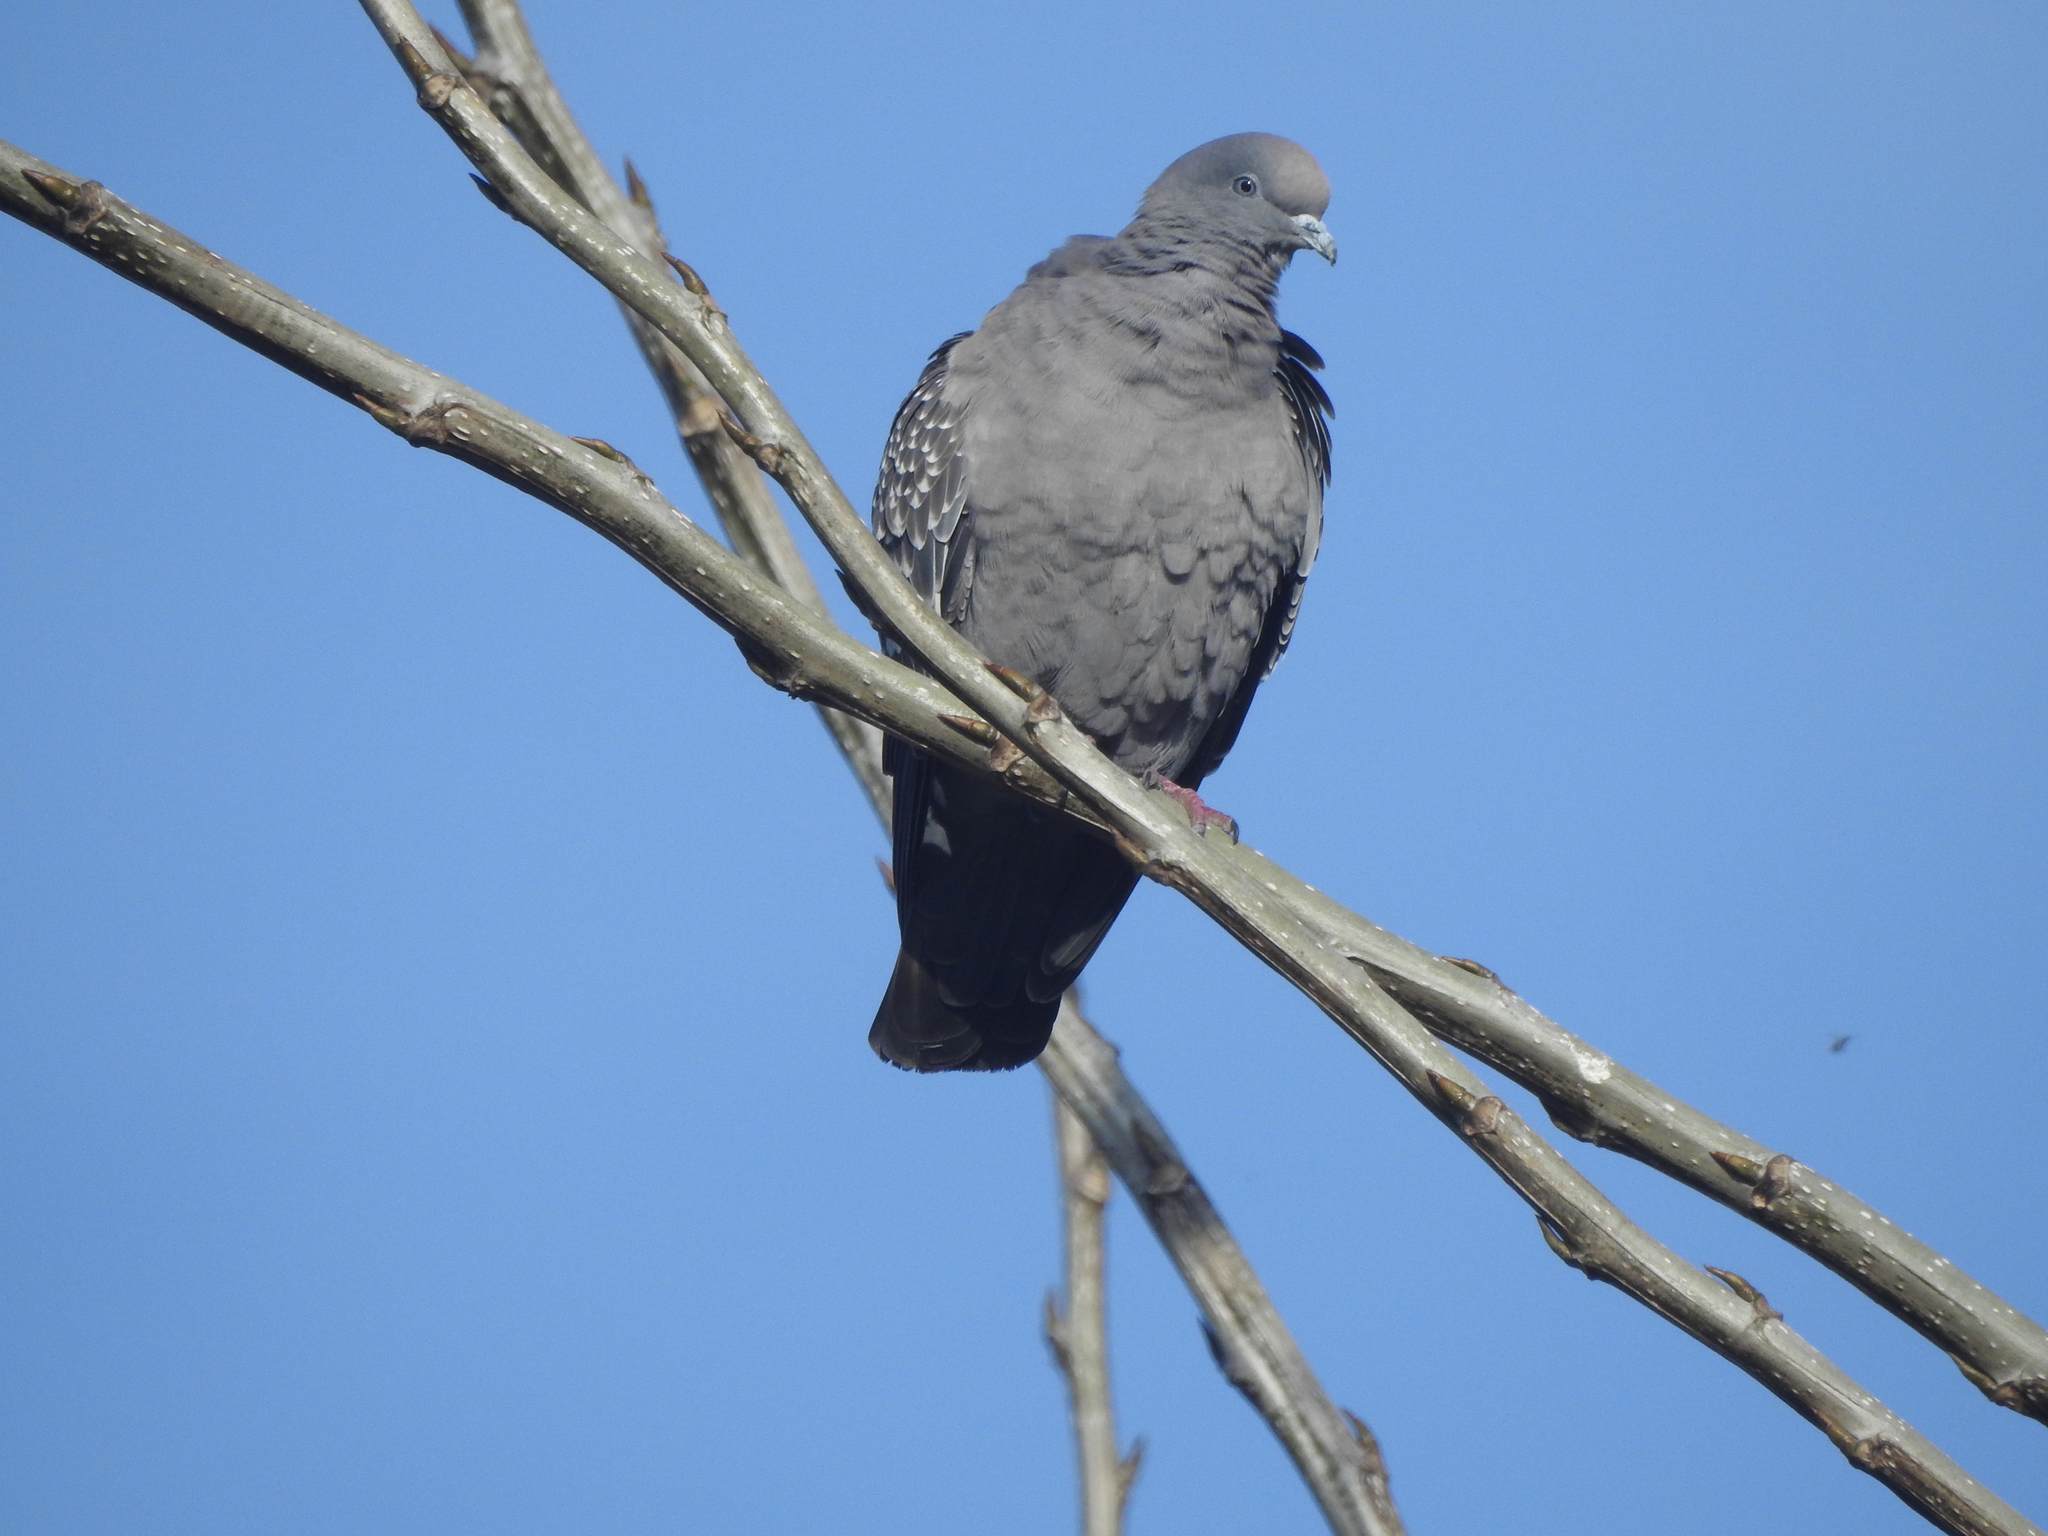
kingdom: Animalia
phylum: Chordata
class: Aves
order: Columbiformes
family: Columbidae
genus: Patagioenas
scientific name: Patagioenas maculosa
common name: Spot-winged pigeon
